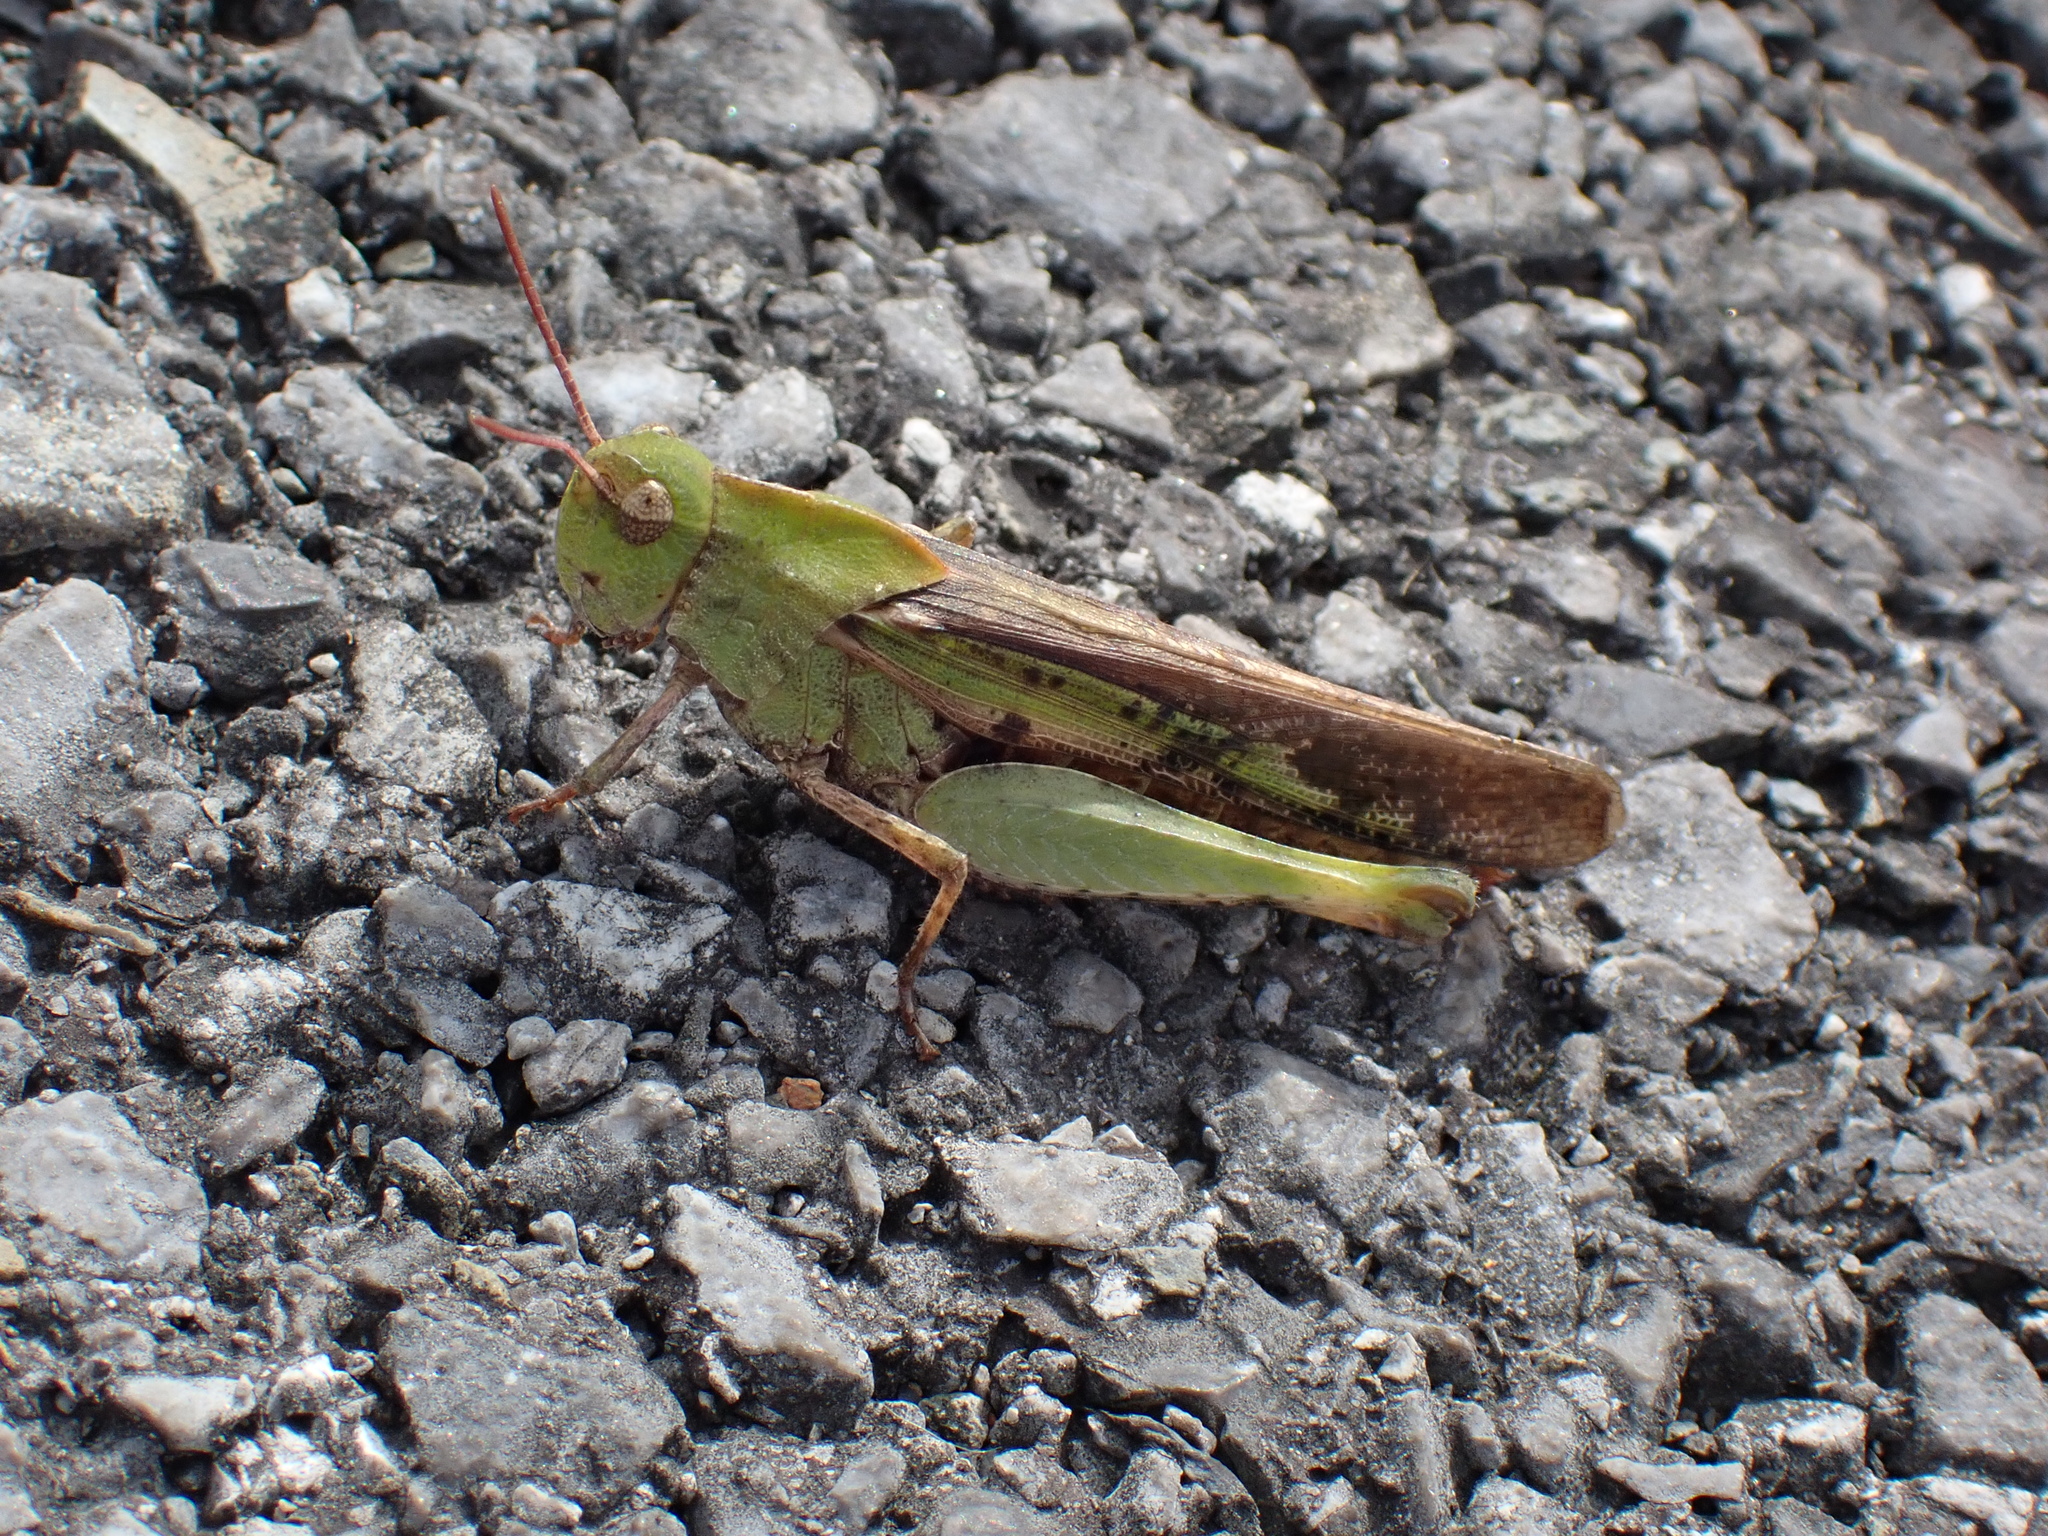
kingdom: Animalia
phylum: Arthropoda
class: Insecta
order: Orthoptera
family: Acrididae
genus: Chortophaga
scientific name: Chortophaga viridifasciata
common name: Green-striped grasshopper
